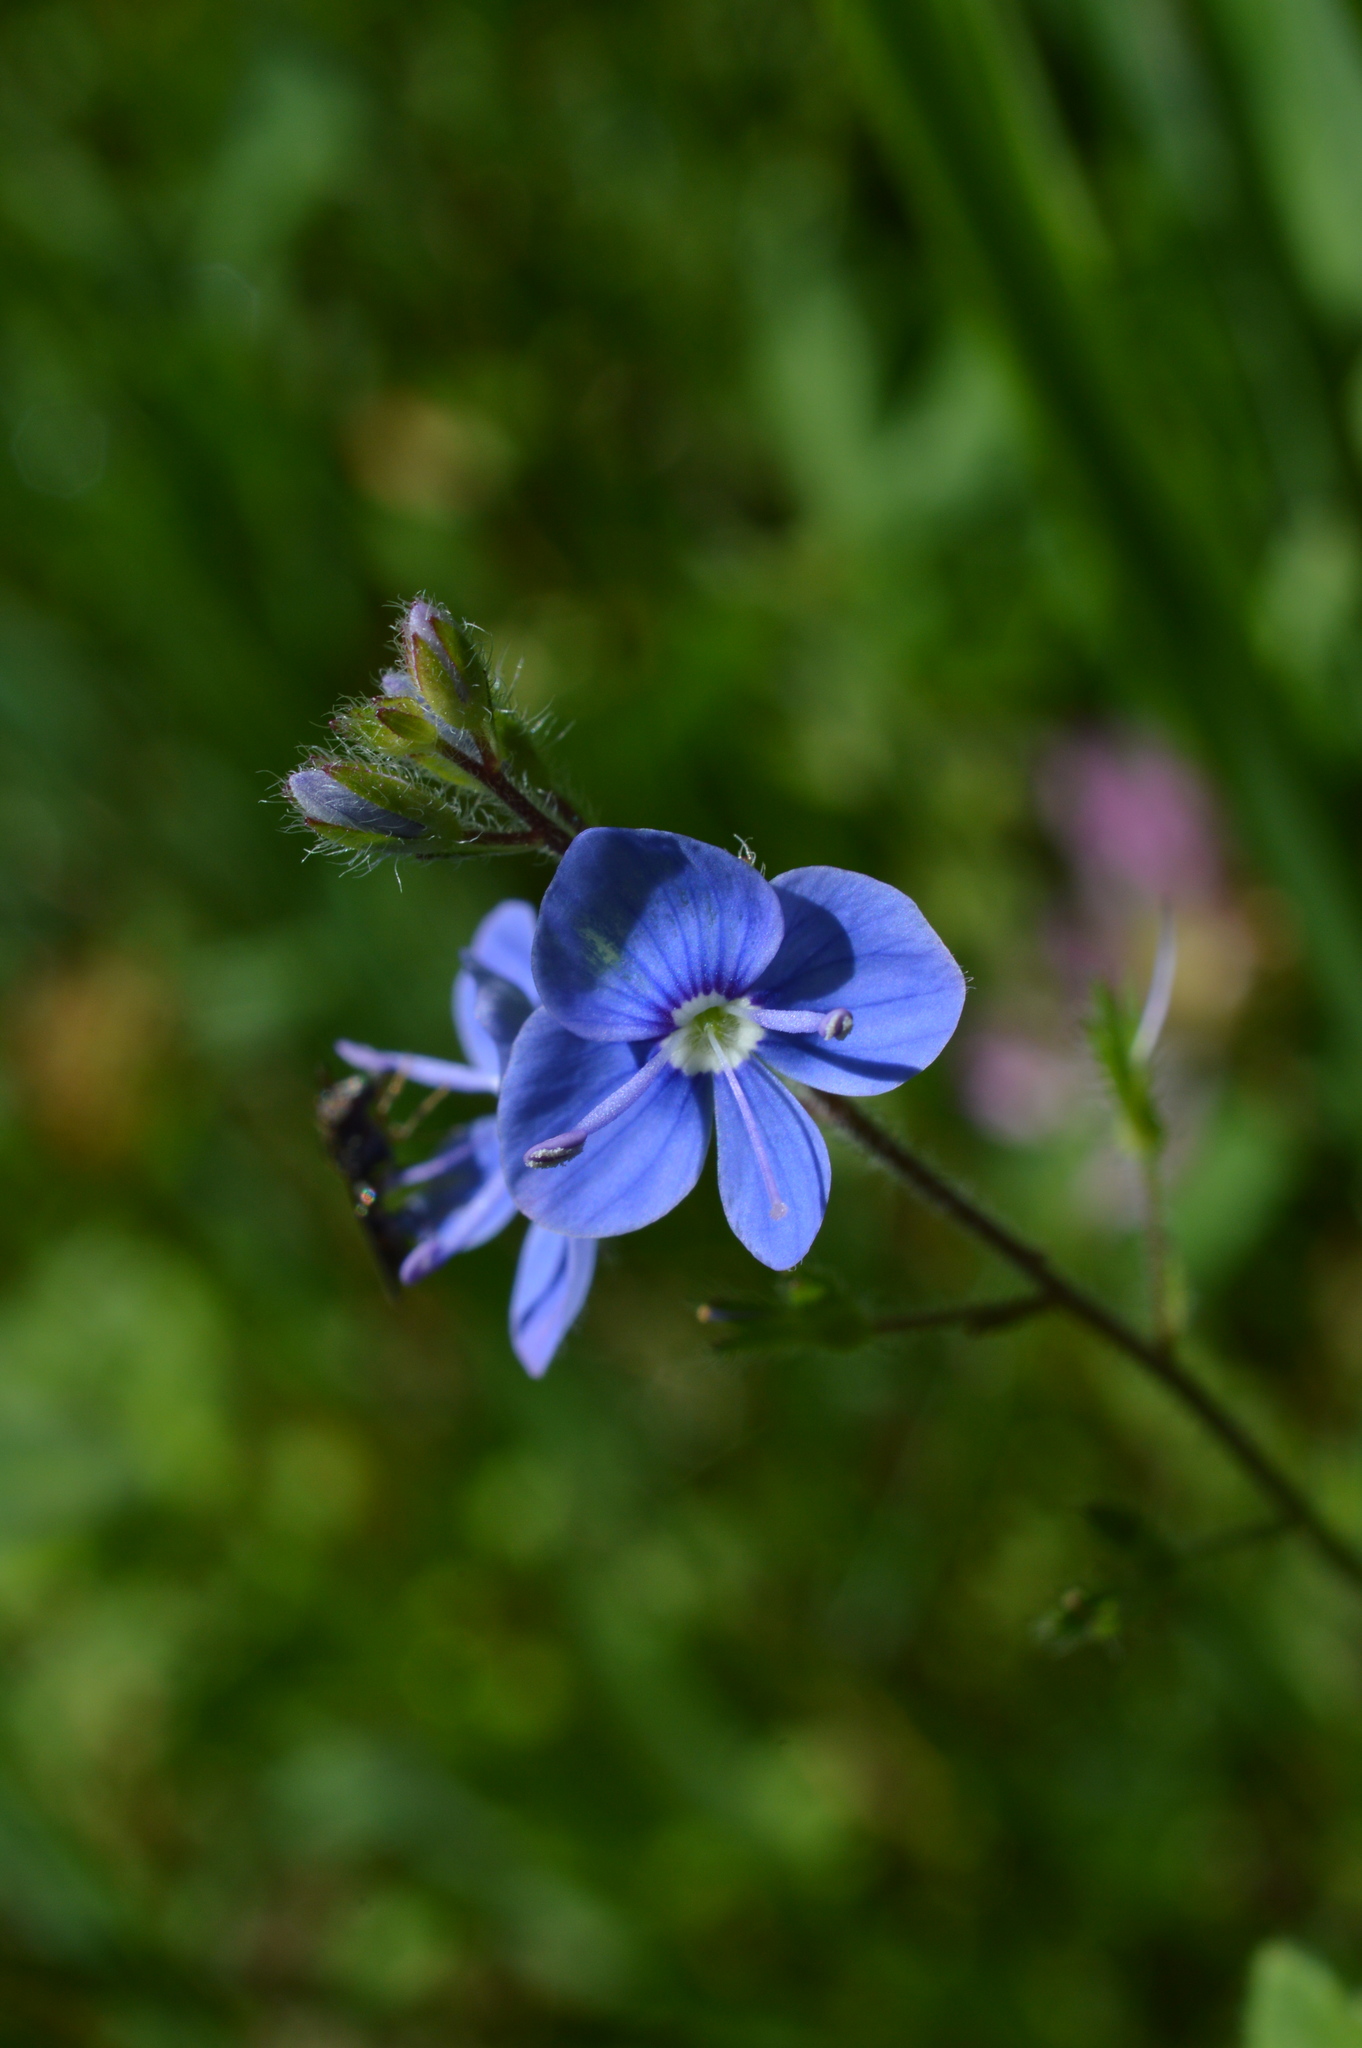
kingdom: Plantae
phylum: Tracheophyta
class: Magnoliopsida
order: Lamiales
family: Plantaginaceae
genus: Veronica
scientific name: Veronica chamaedrys
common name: Germander speedwell
